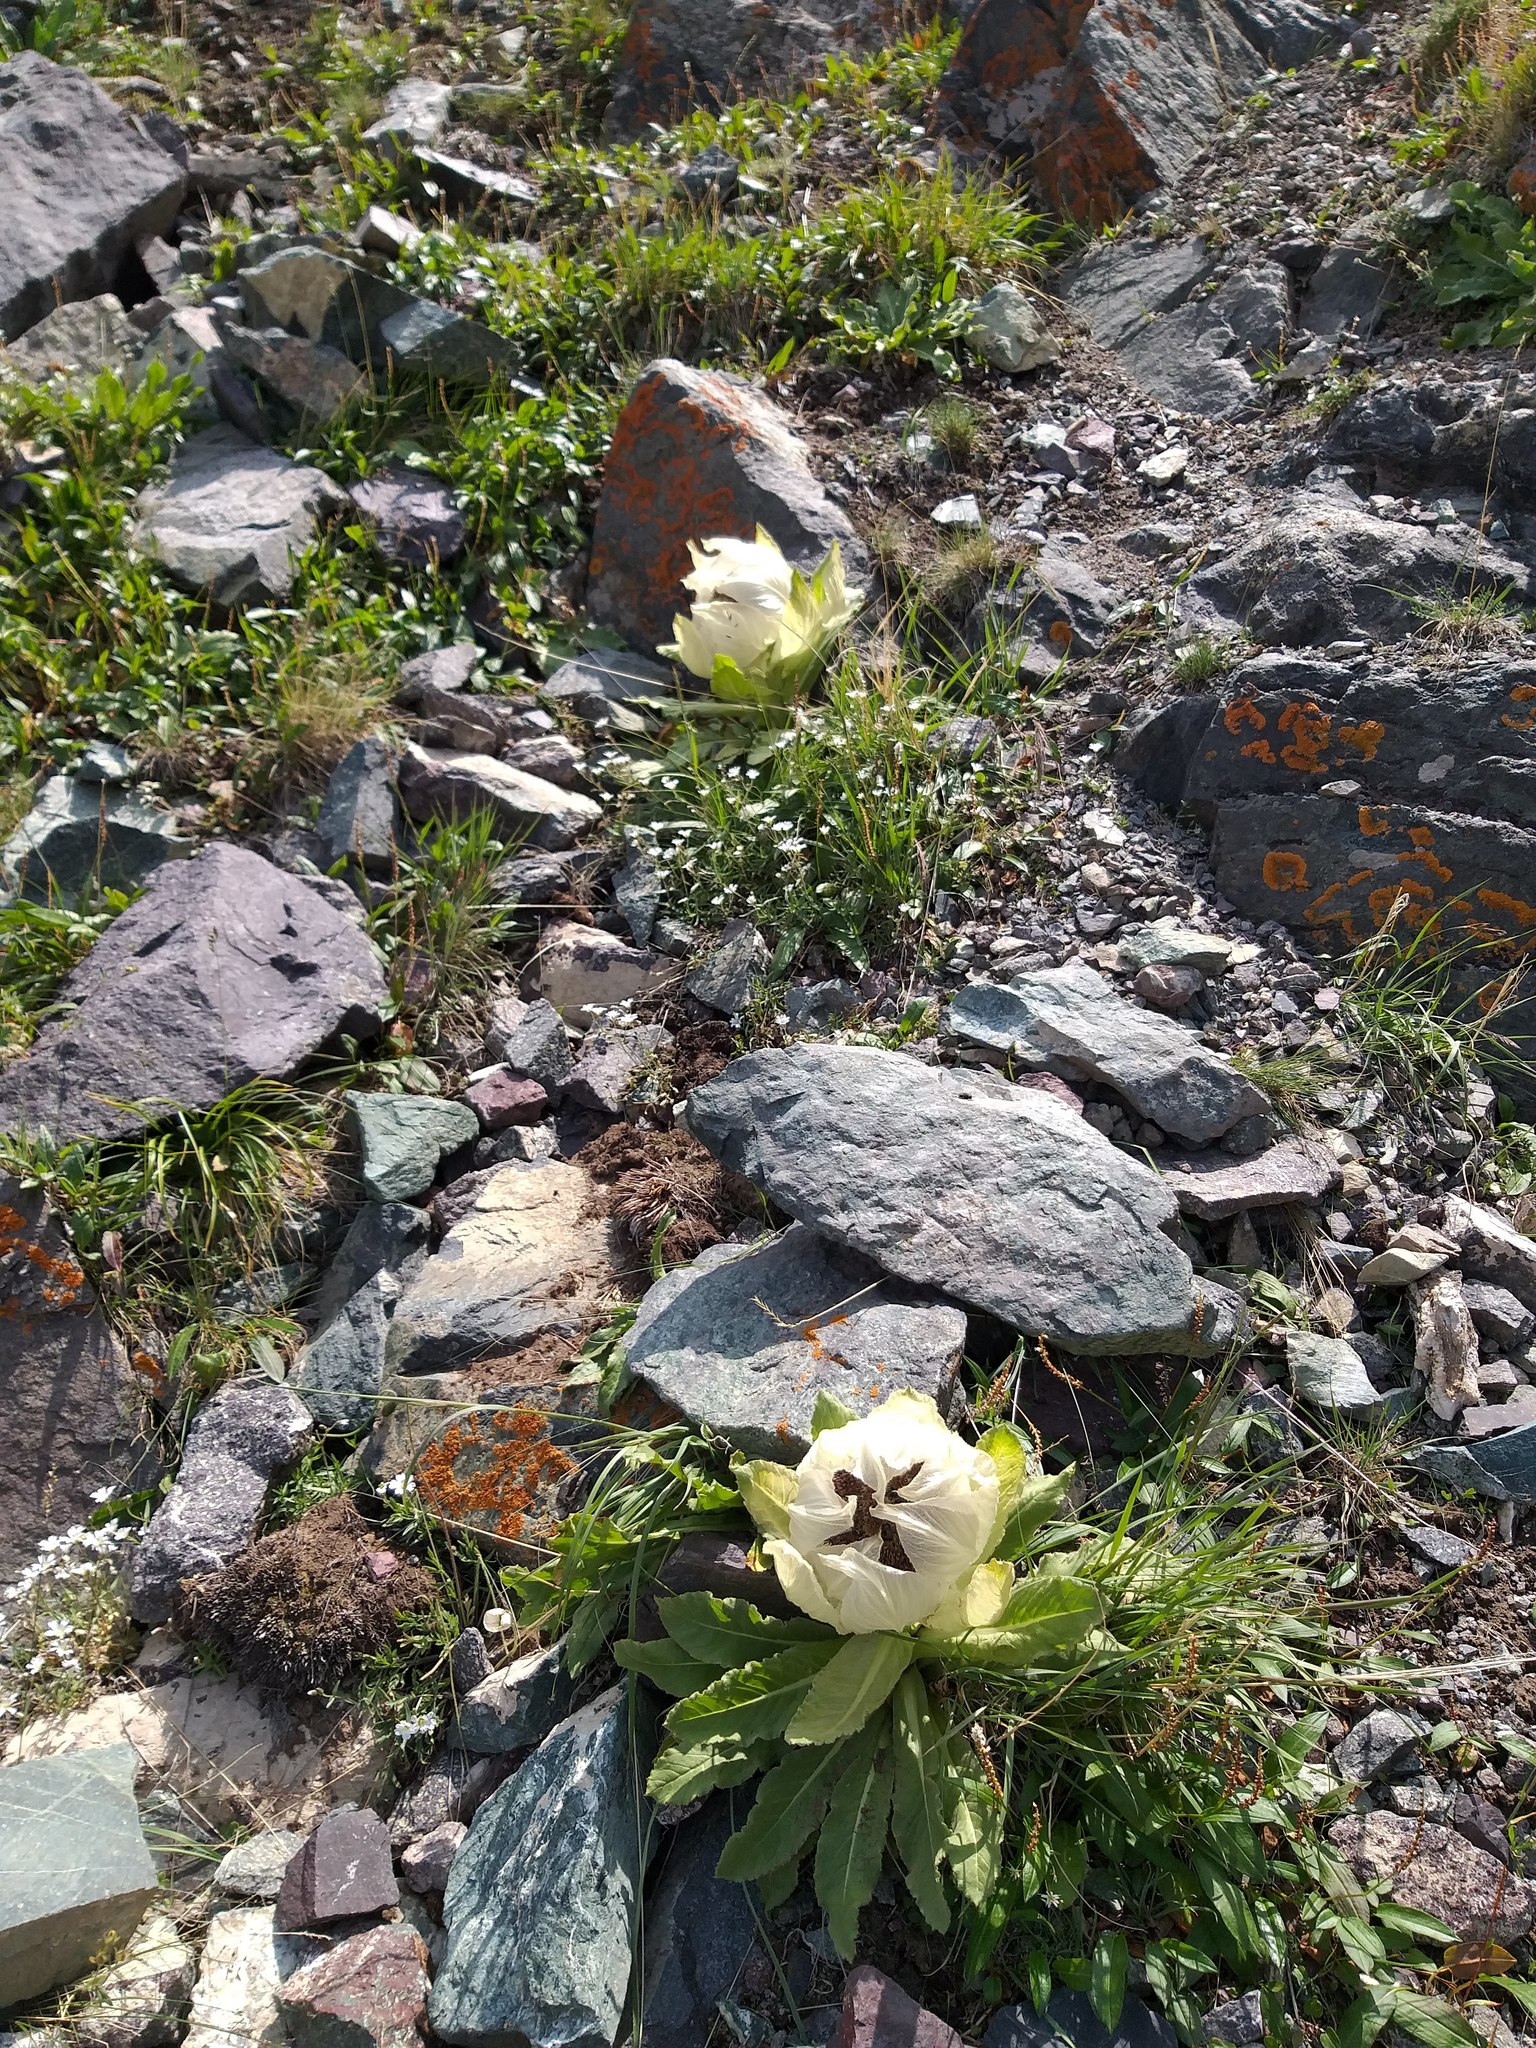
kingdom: Plantae
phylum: Tracheophyta
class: Magnoliopsida
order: Asterales
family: Asteraceae
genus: Saussurea
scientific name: Saussurea bogedaensis
